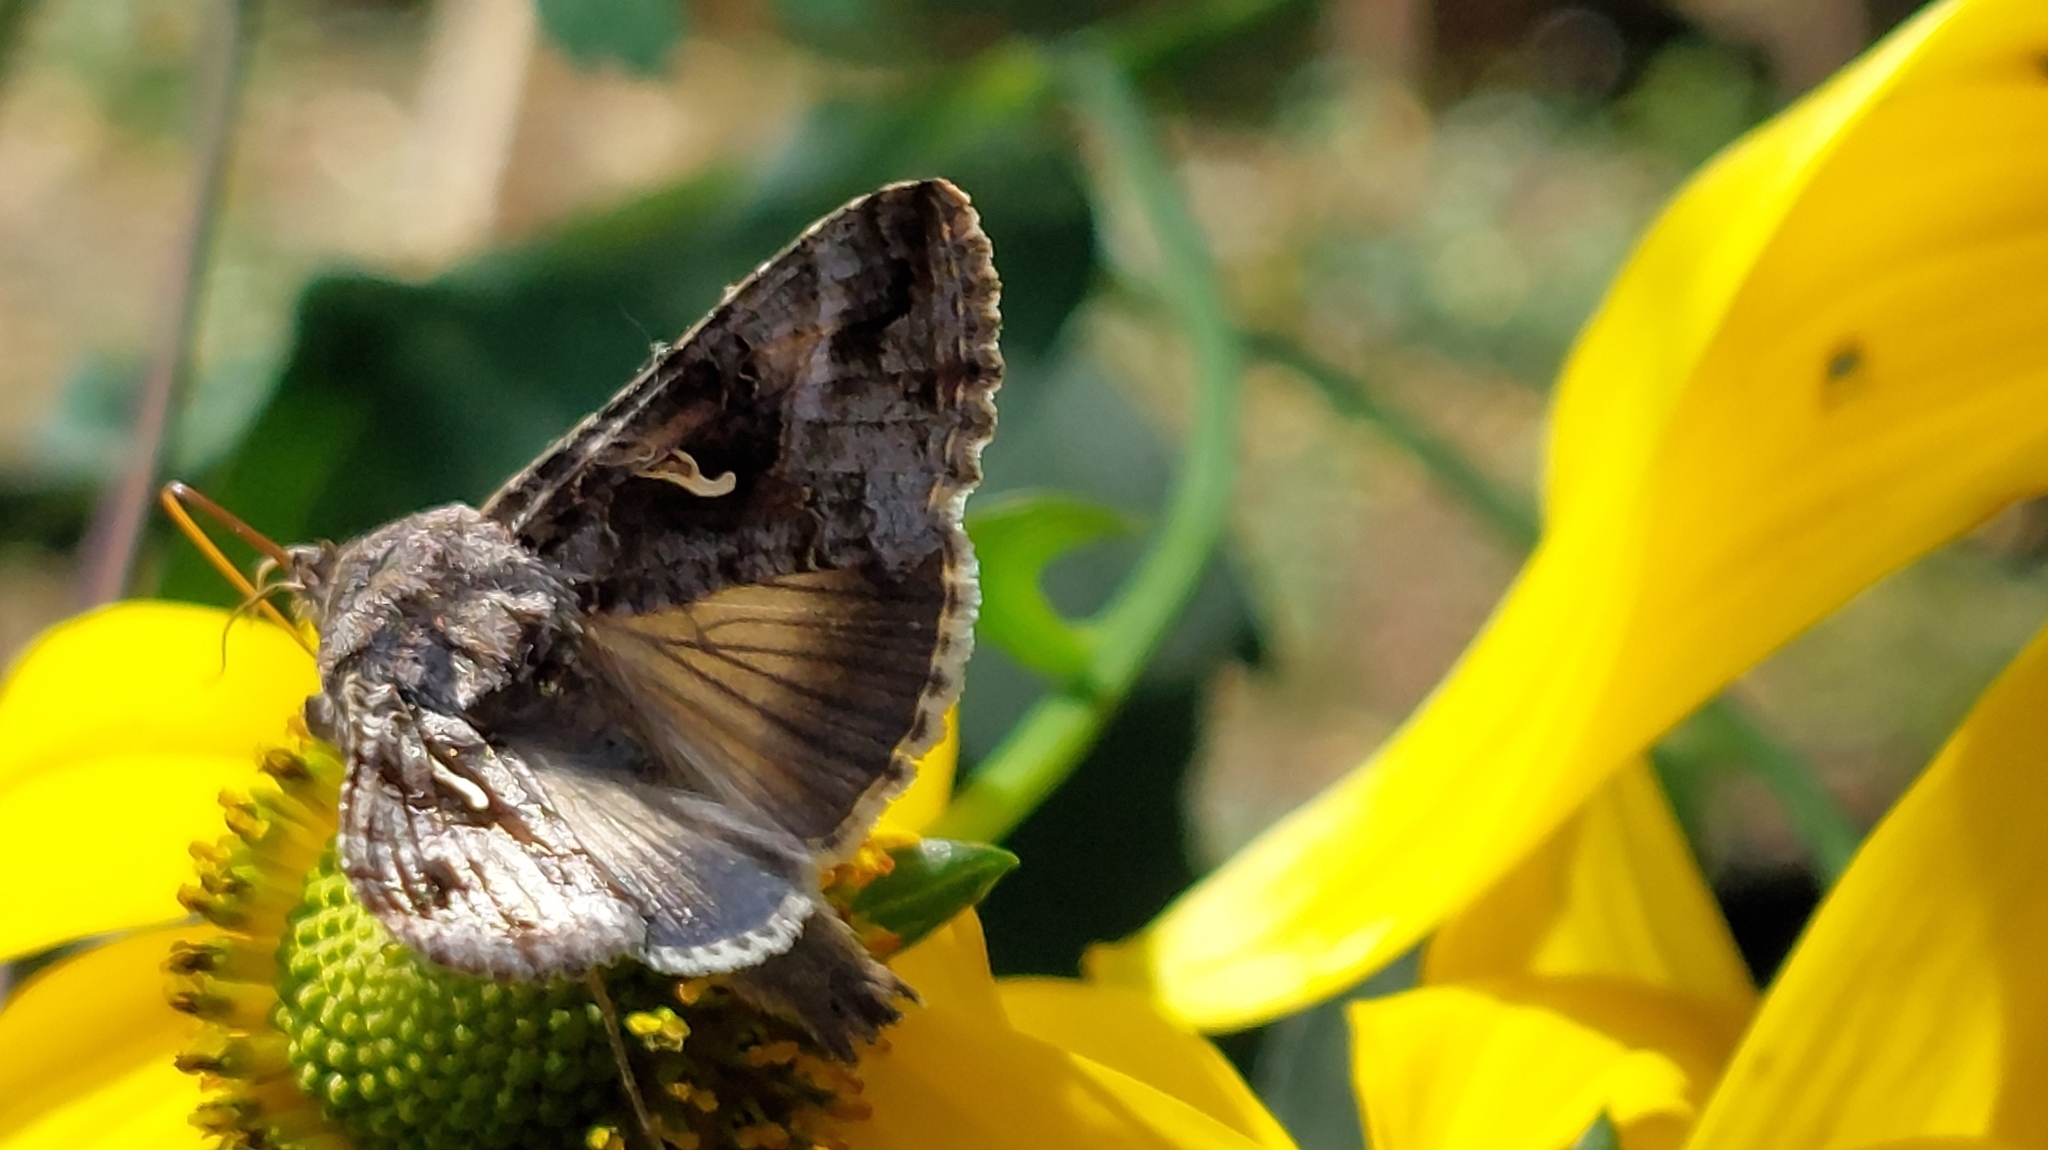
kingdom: Animalia
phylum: Arthropoda
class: Insecta
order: Lepidoptera
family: Noctuidae
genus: Autographa
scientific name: Autographa gamma
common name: Silver y
